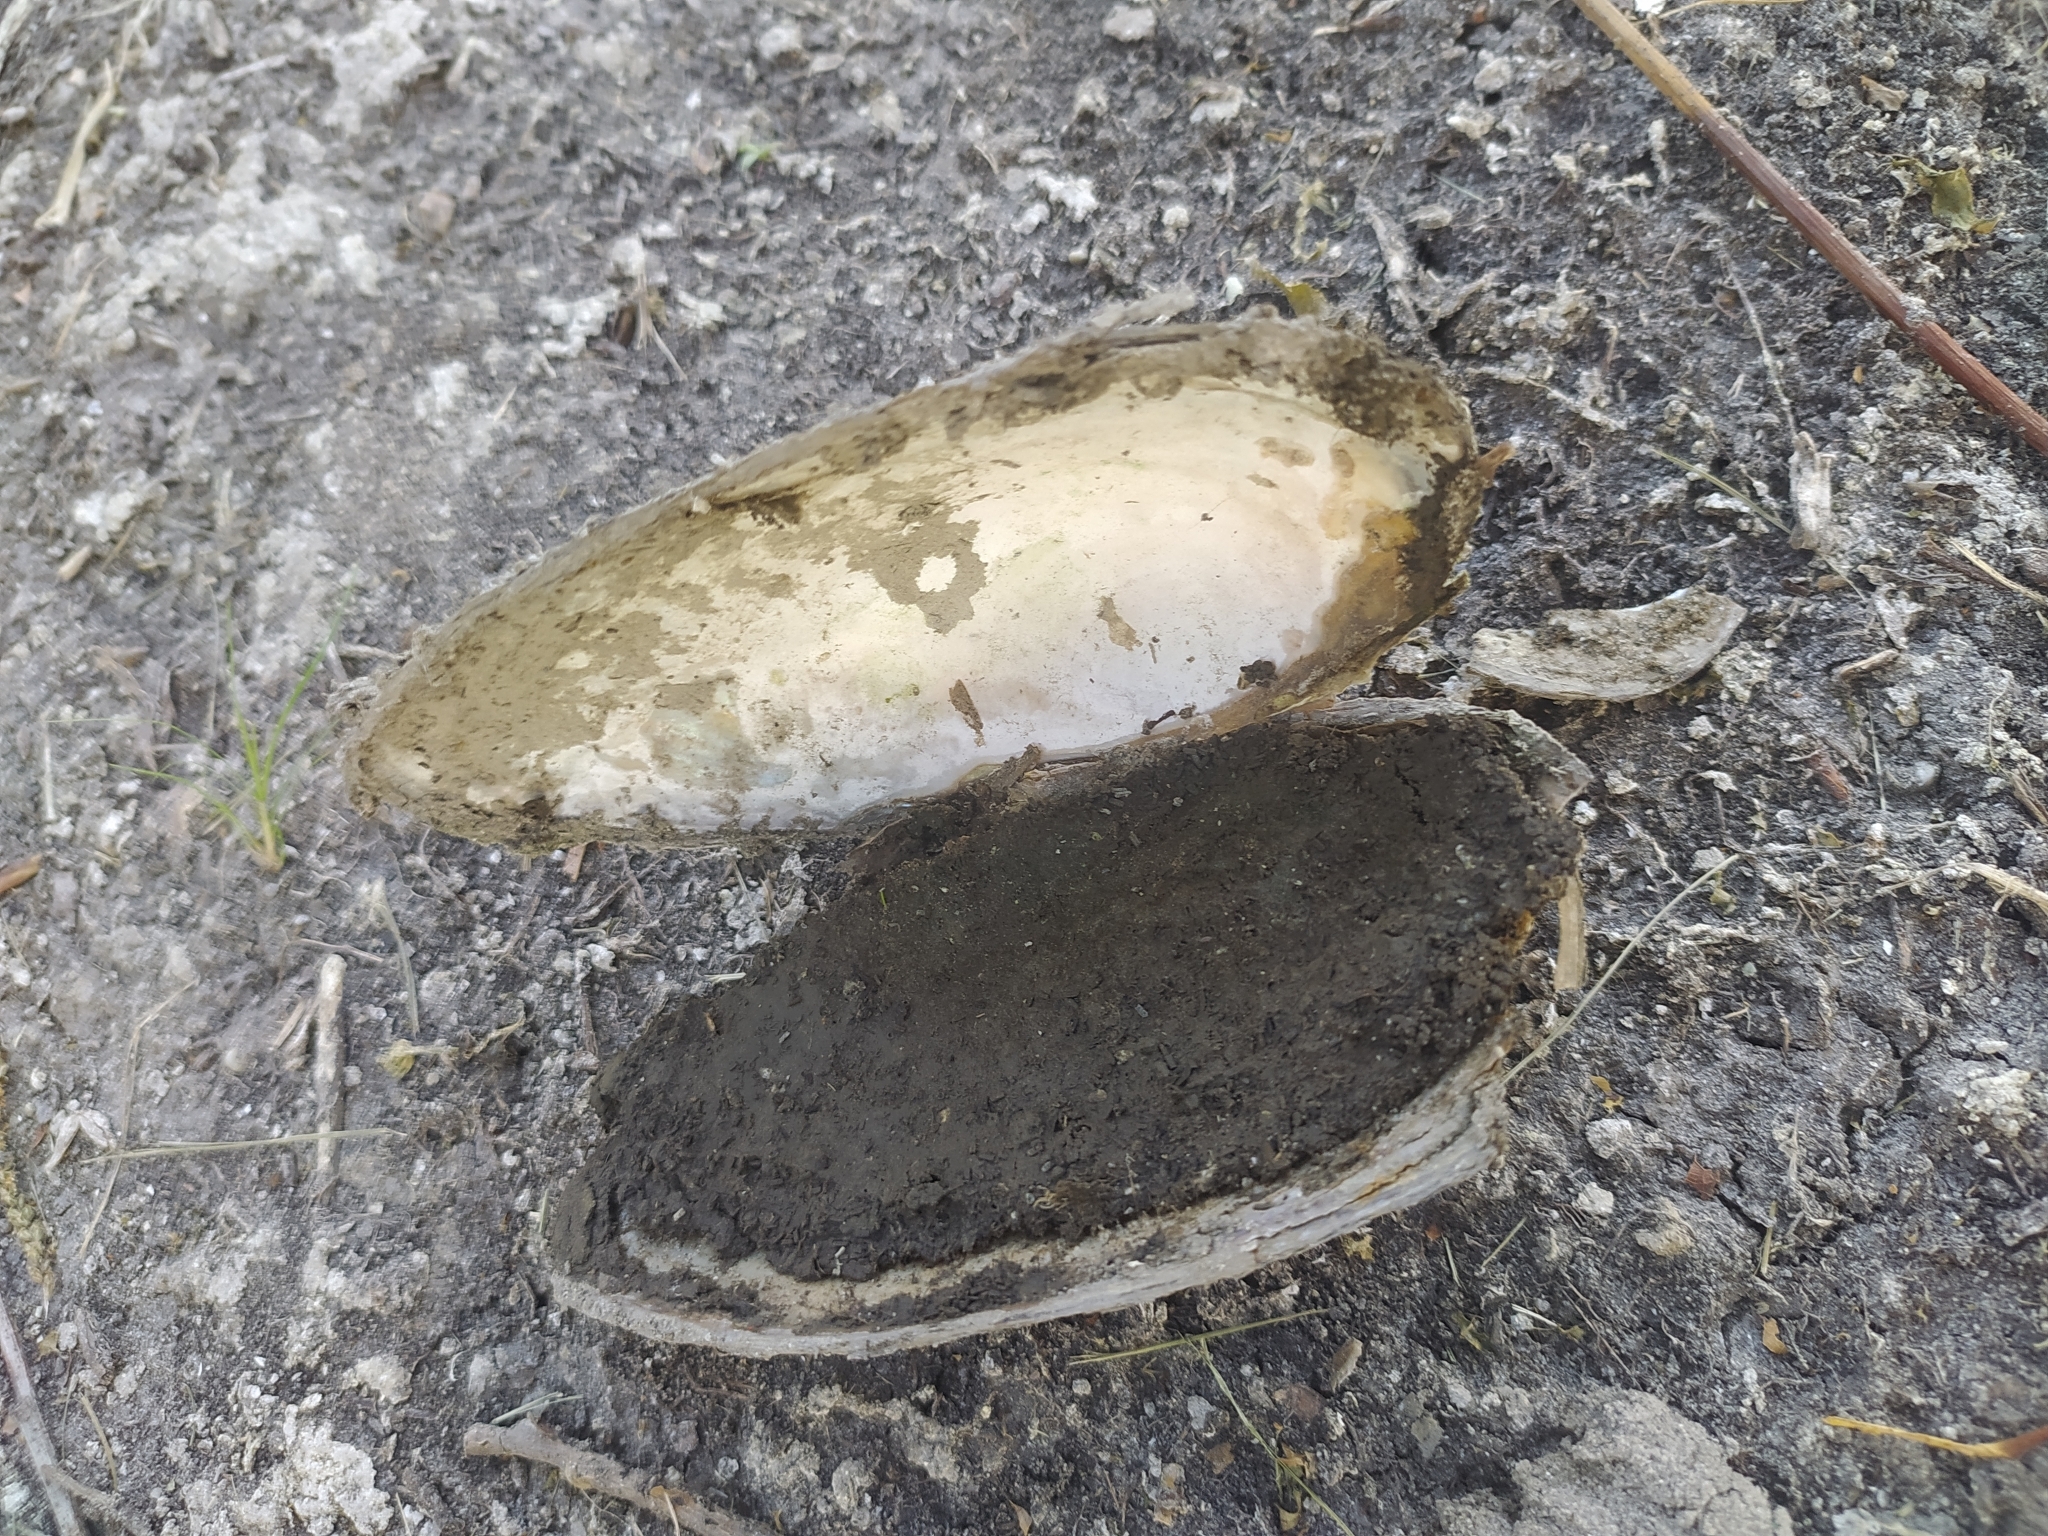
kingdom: Animalia
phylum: Mollusca
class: Bivalvia
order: Unionida
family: Unionidae
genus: Anodonta
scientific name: Anodonta anatina
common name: Duck mussel
